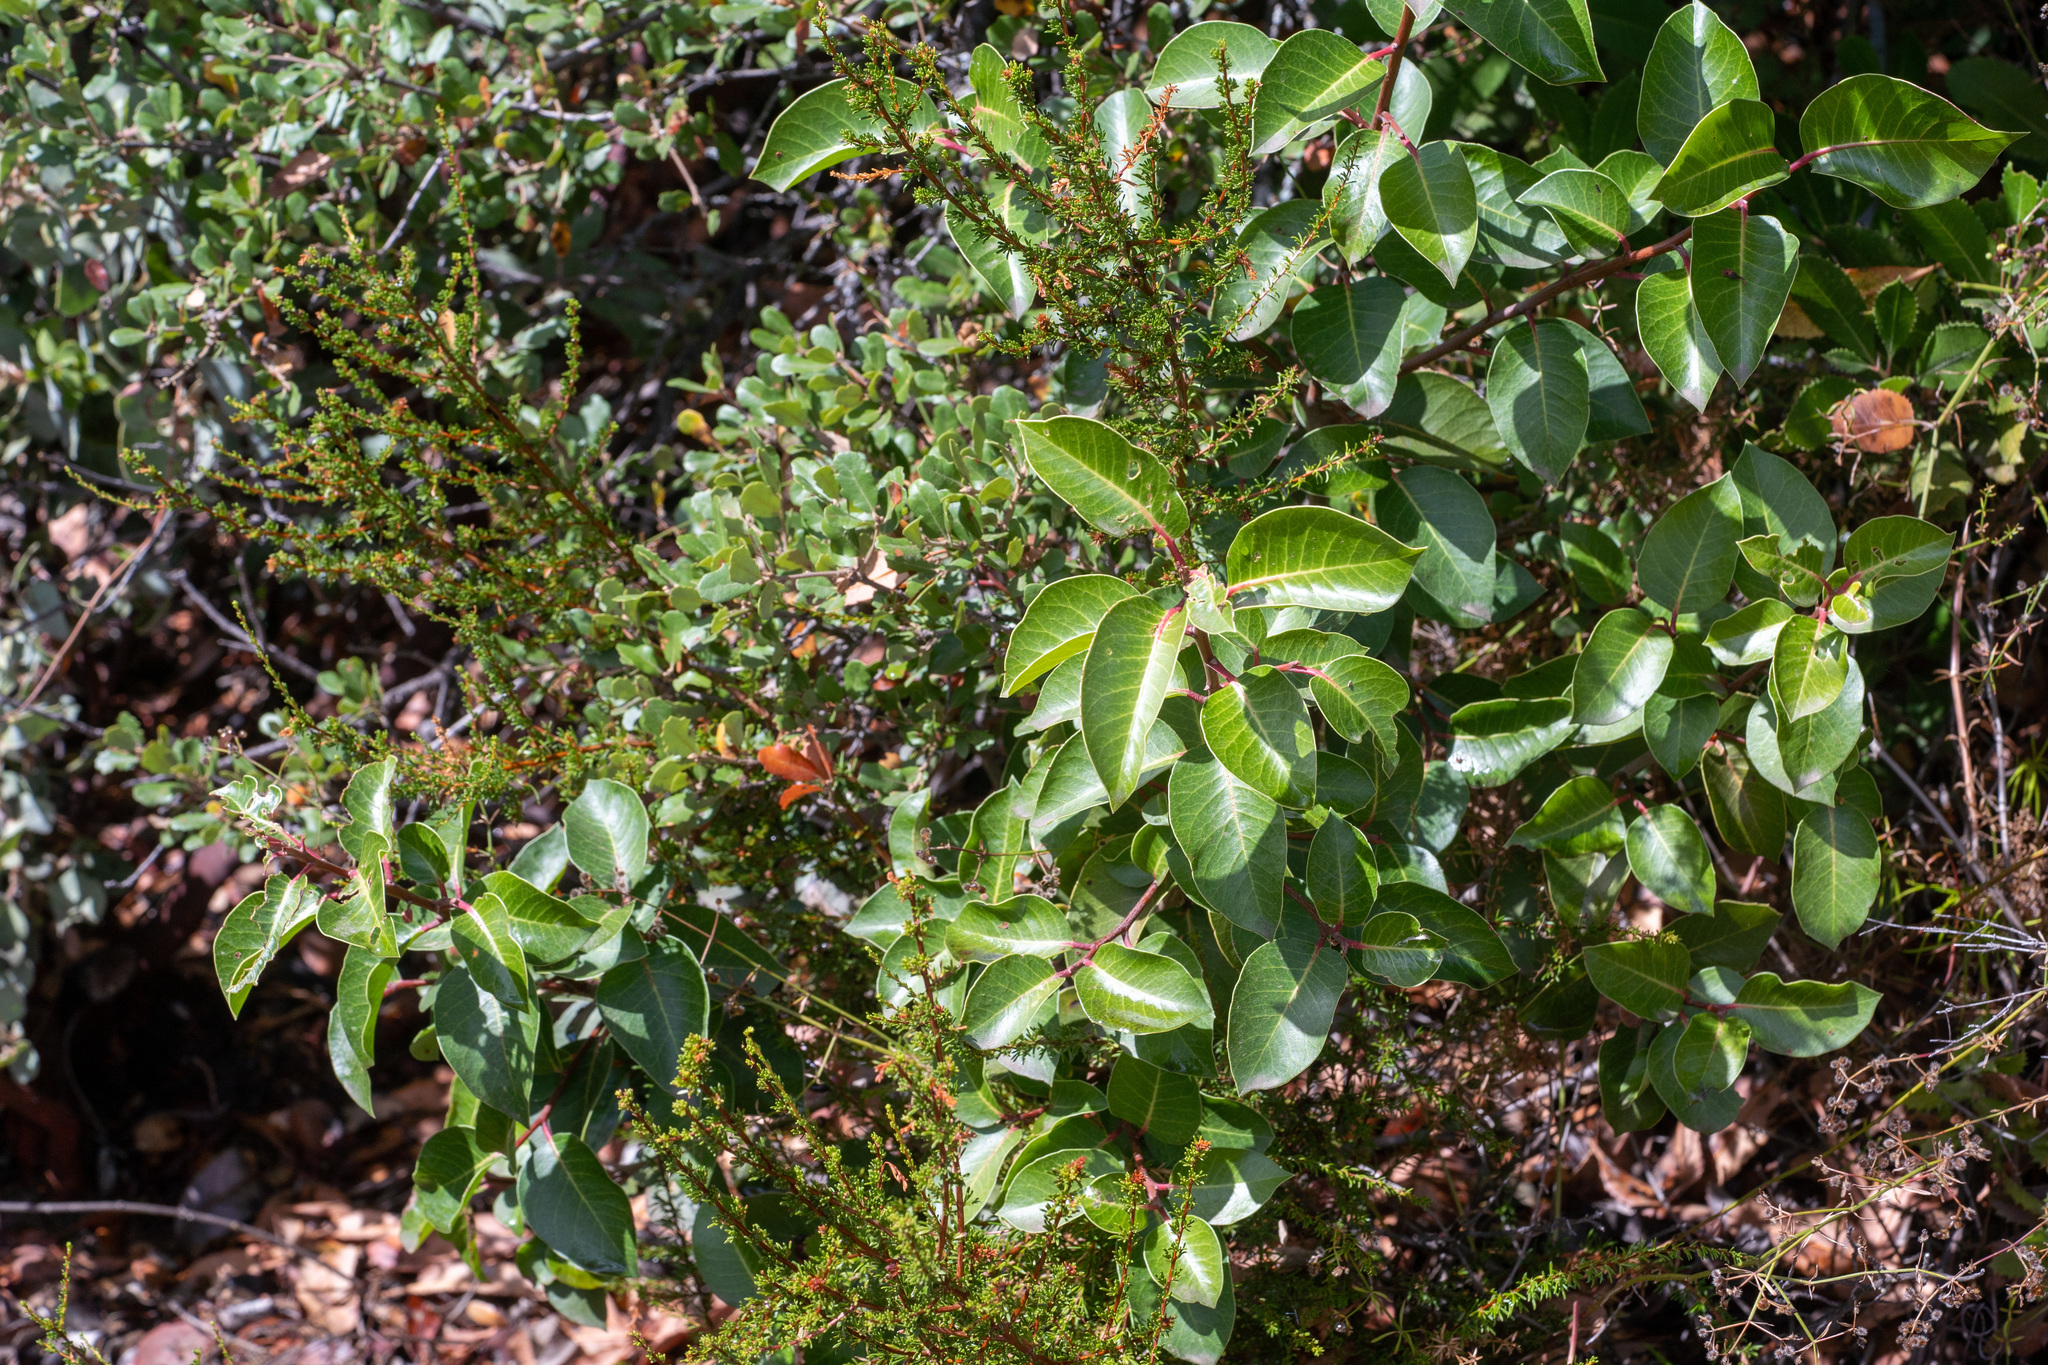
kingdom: Plantae
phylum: Tracheophyta
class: Magnoliopsida
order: Sapindales
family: Anacardiaceae
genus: Rhus
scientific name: Rhus ovata
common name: Sugar sumac
